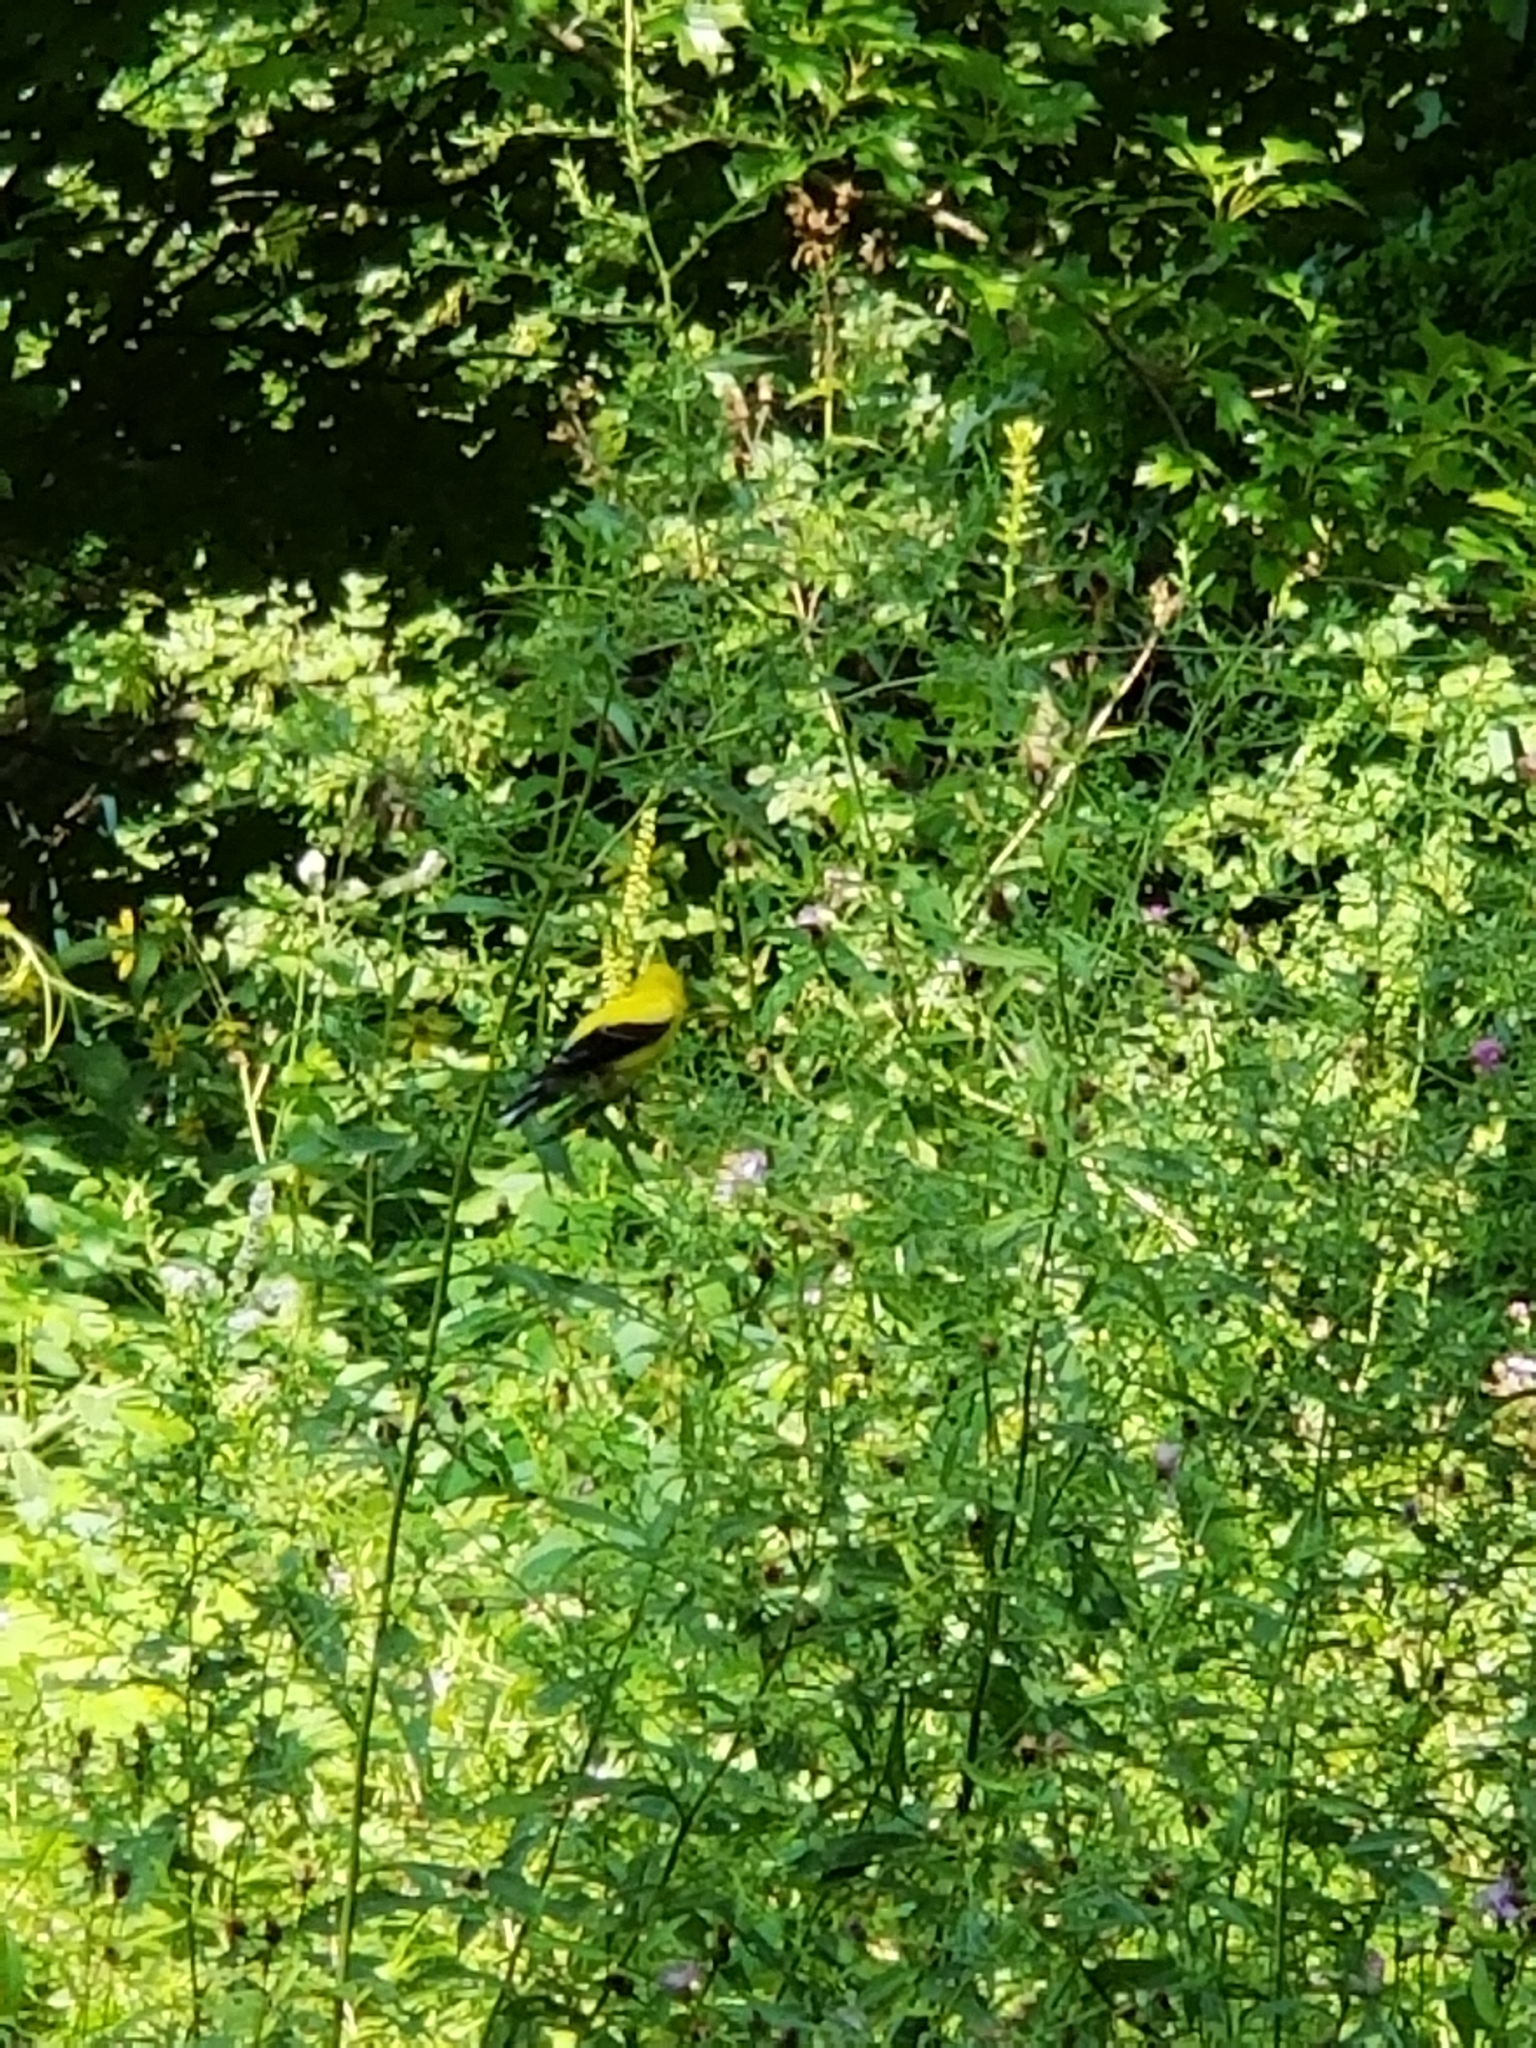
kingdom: Animalia
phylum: Chordata
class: Aves
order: Passeriformes
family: Fringillidae
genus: Spinus
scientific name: Spinus tristis
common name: American goldfinch
